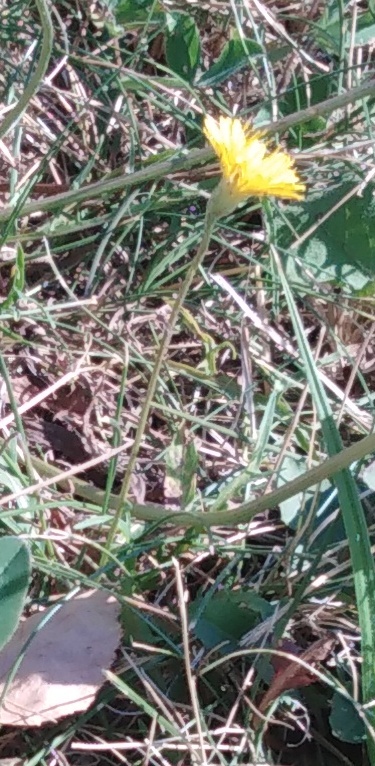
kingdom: Plantae
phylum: Tracheophyta
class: Magnoliopsida
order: Asterales
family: Asteraceae
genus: Scorzoneroides
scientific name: Scorzoneroides autumnalis
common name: Autumn hawkbit
